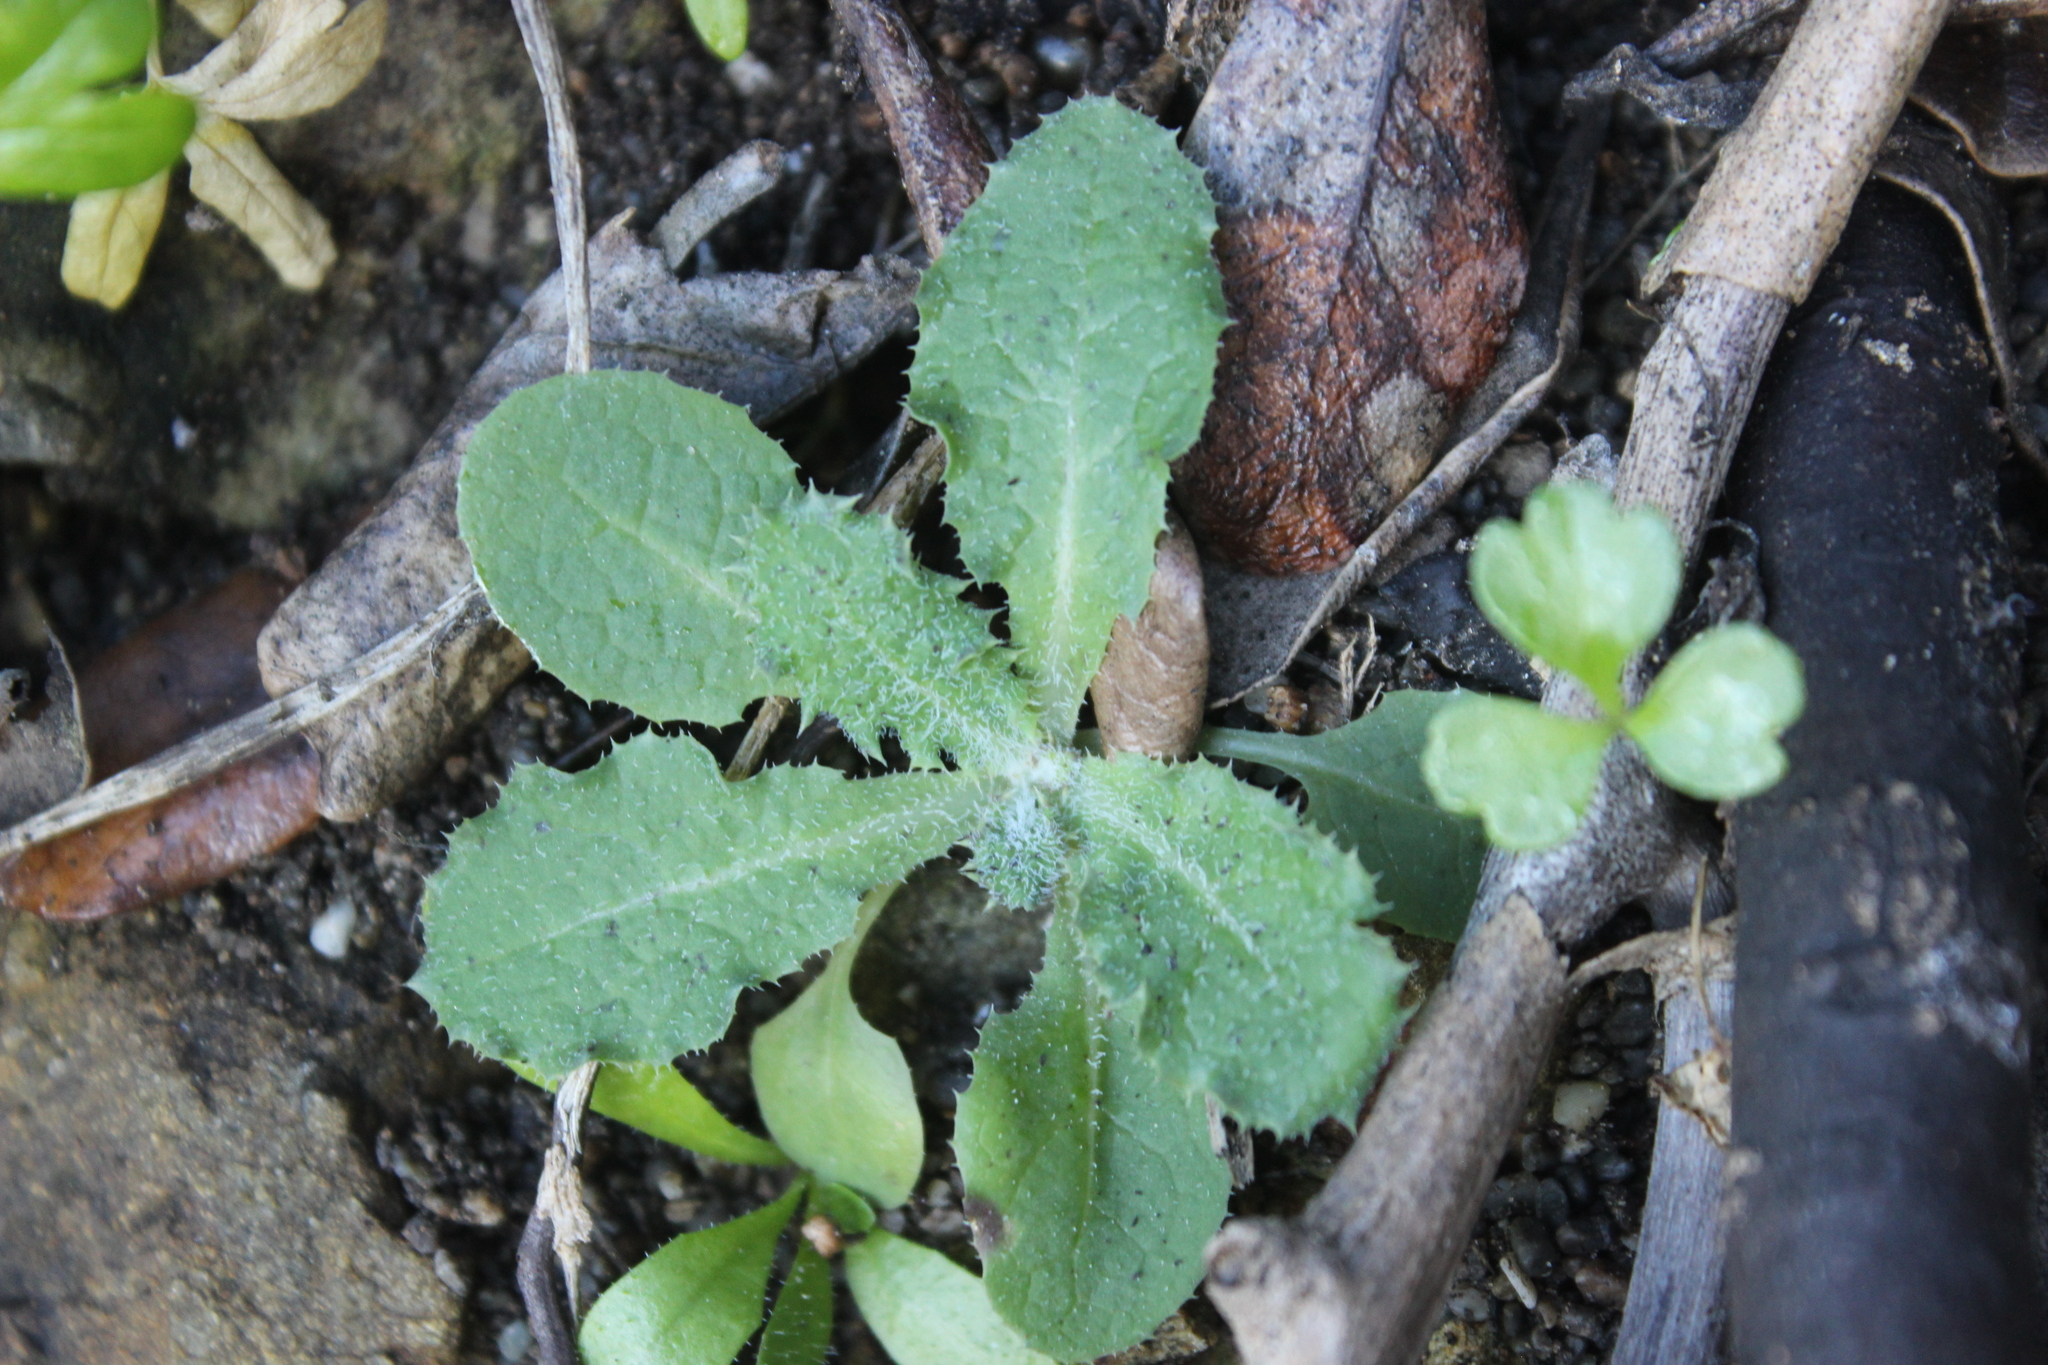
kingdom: Plantae
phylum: Tracheophyta
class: Magnoliopsida
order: Asterales
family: Asteraceae
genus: Sonchus
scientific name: Sonchus kirkii
